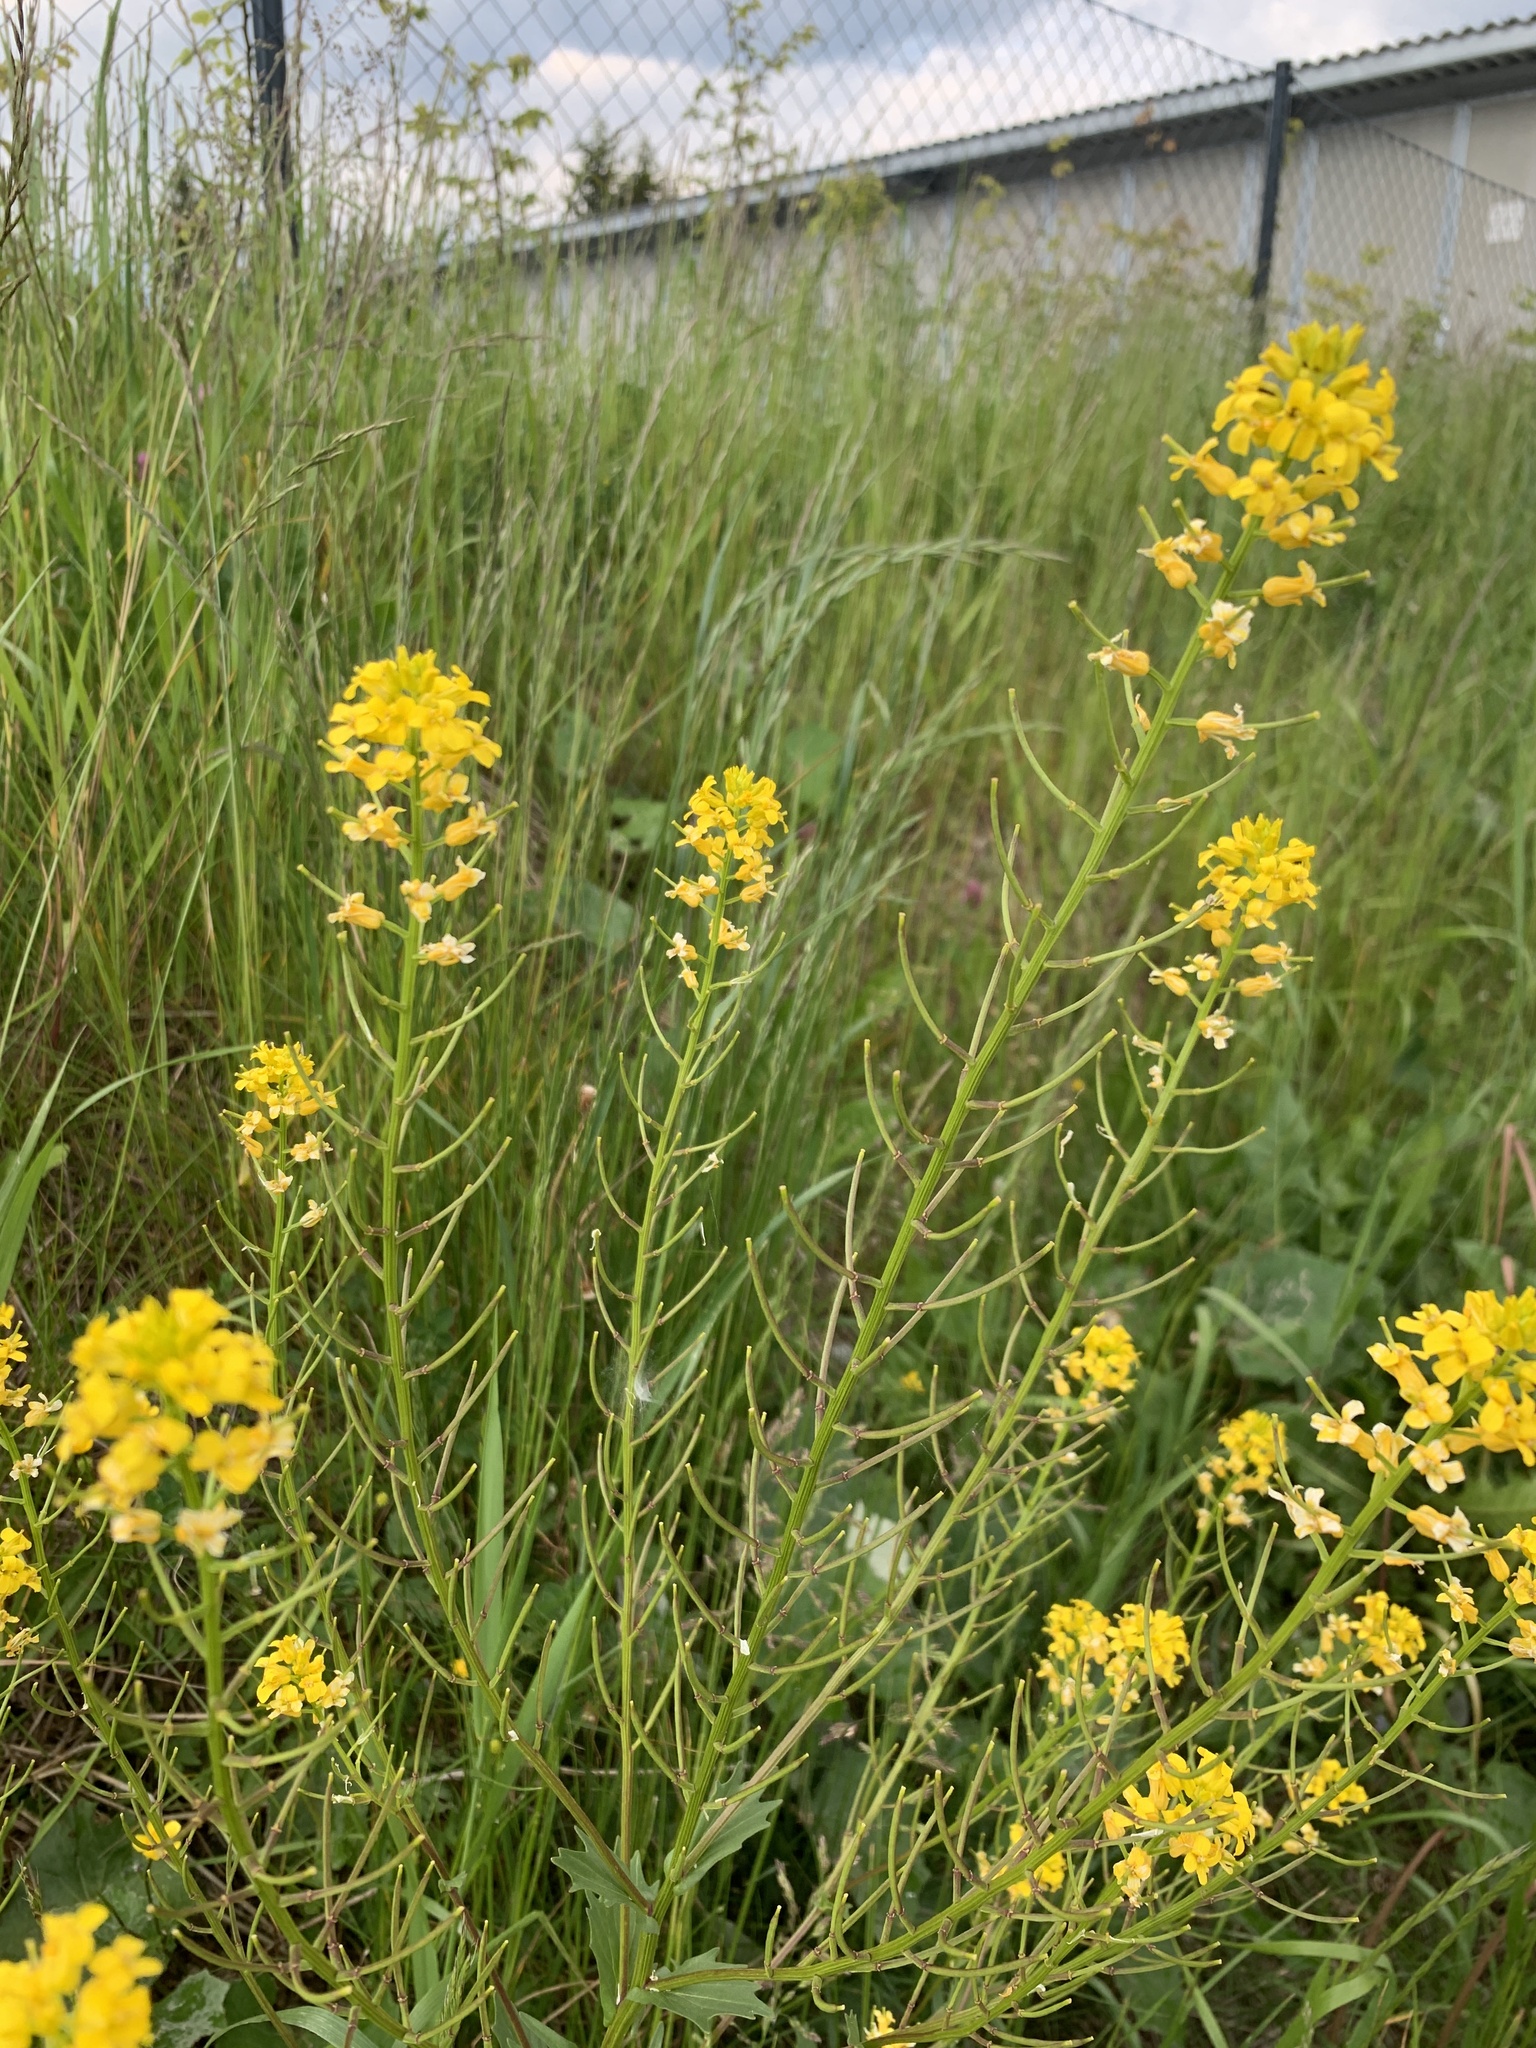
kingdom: Plantae
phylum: Tracheophyta
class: Magnoliopsida
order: Brassicales
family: Brassicaceae
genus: Barbarea
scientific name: Barbarea vulgaris
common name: Cressy-greens
